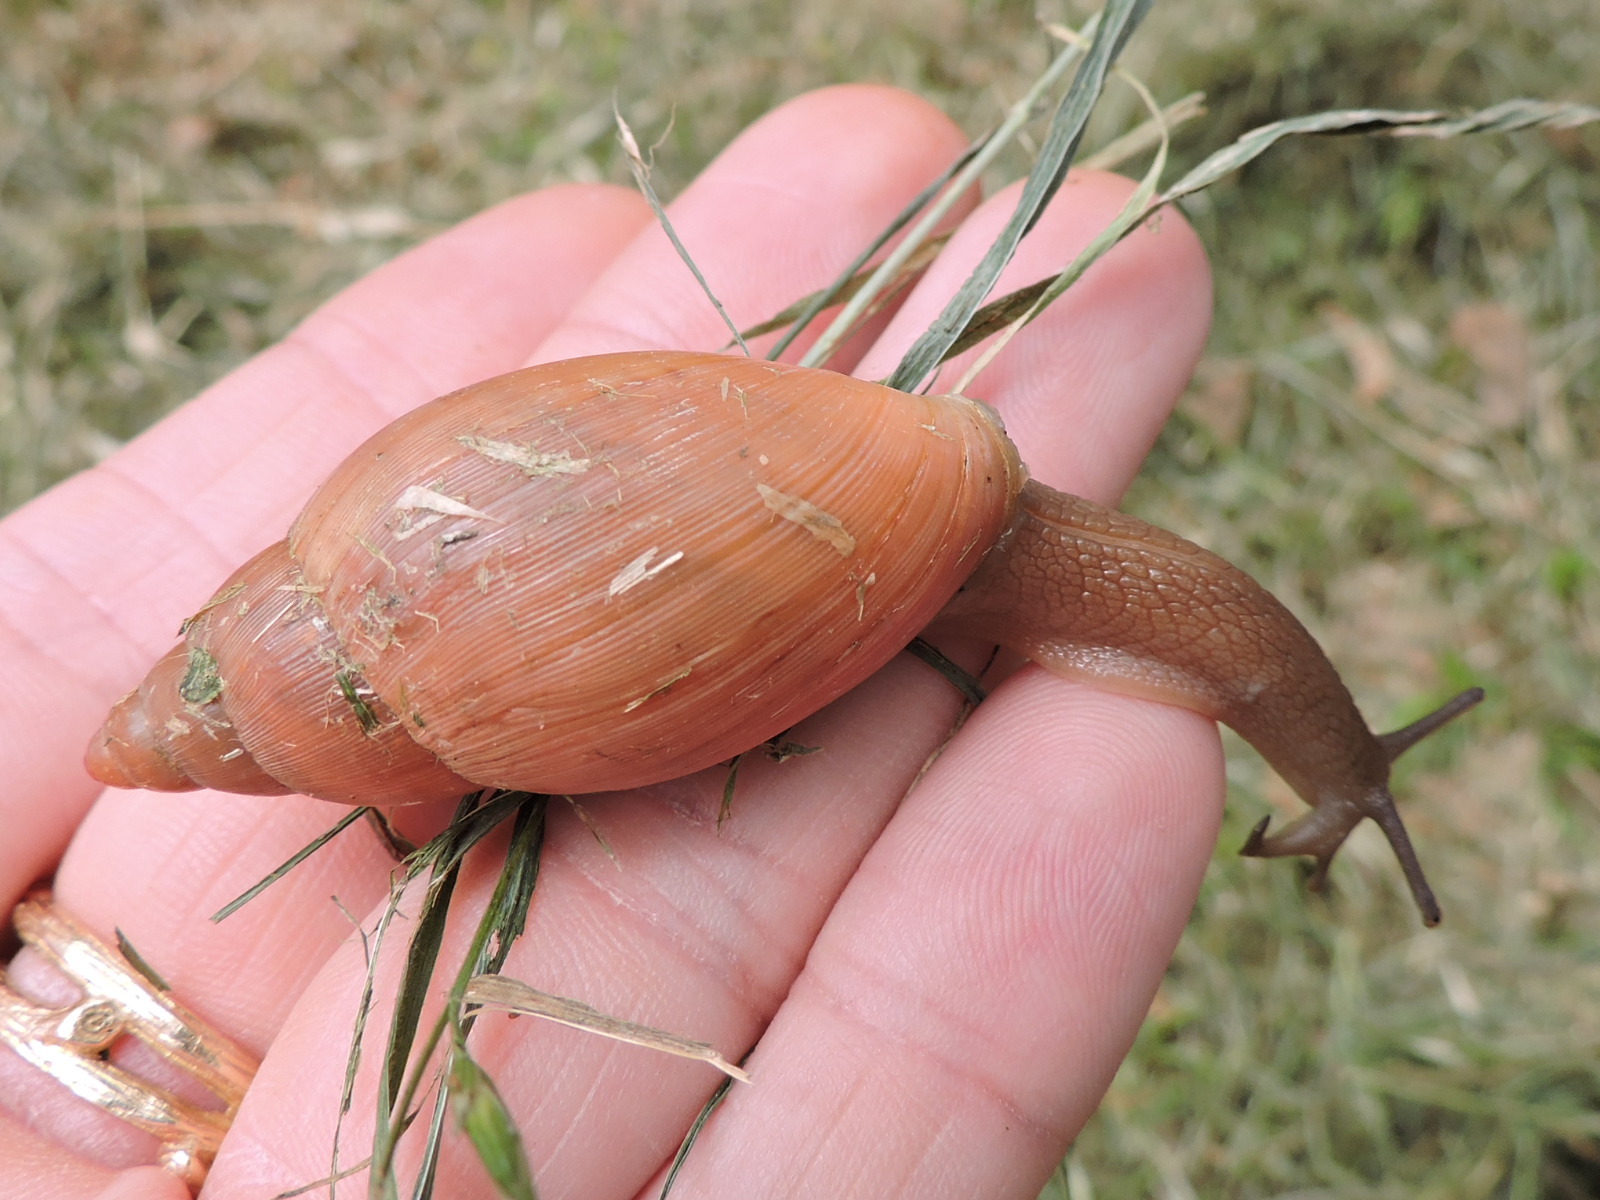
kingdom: Animalia
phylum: Mollusca
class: Gastropoda
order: Stylommatophora
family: Spiraxidae
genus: Euglandina
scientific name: Euglandina rosea
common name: Rosy wolfsnail
